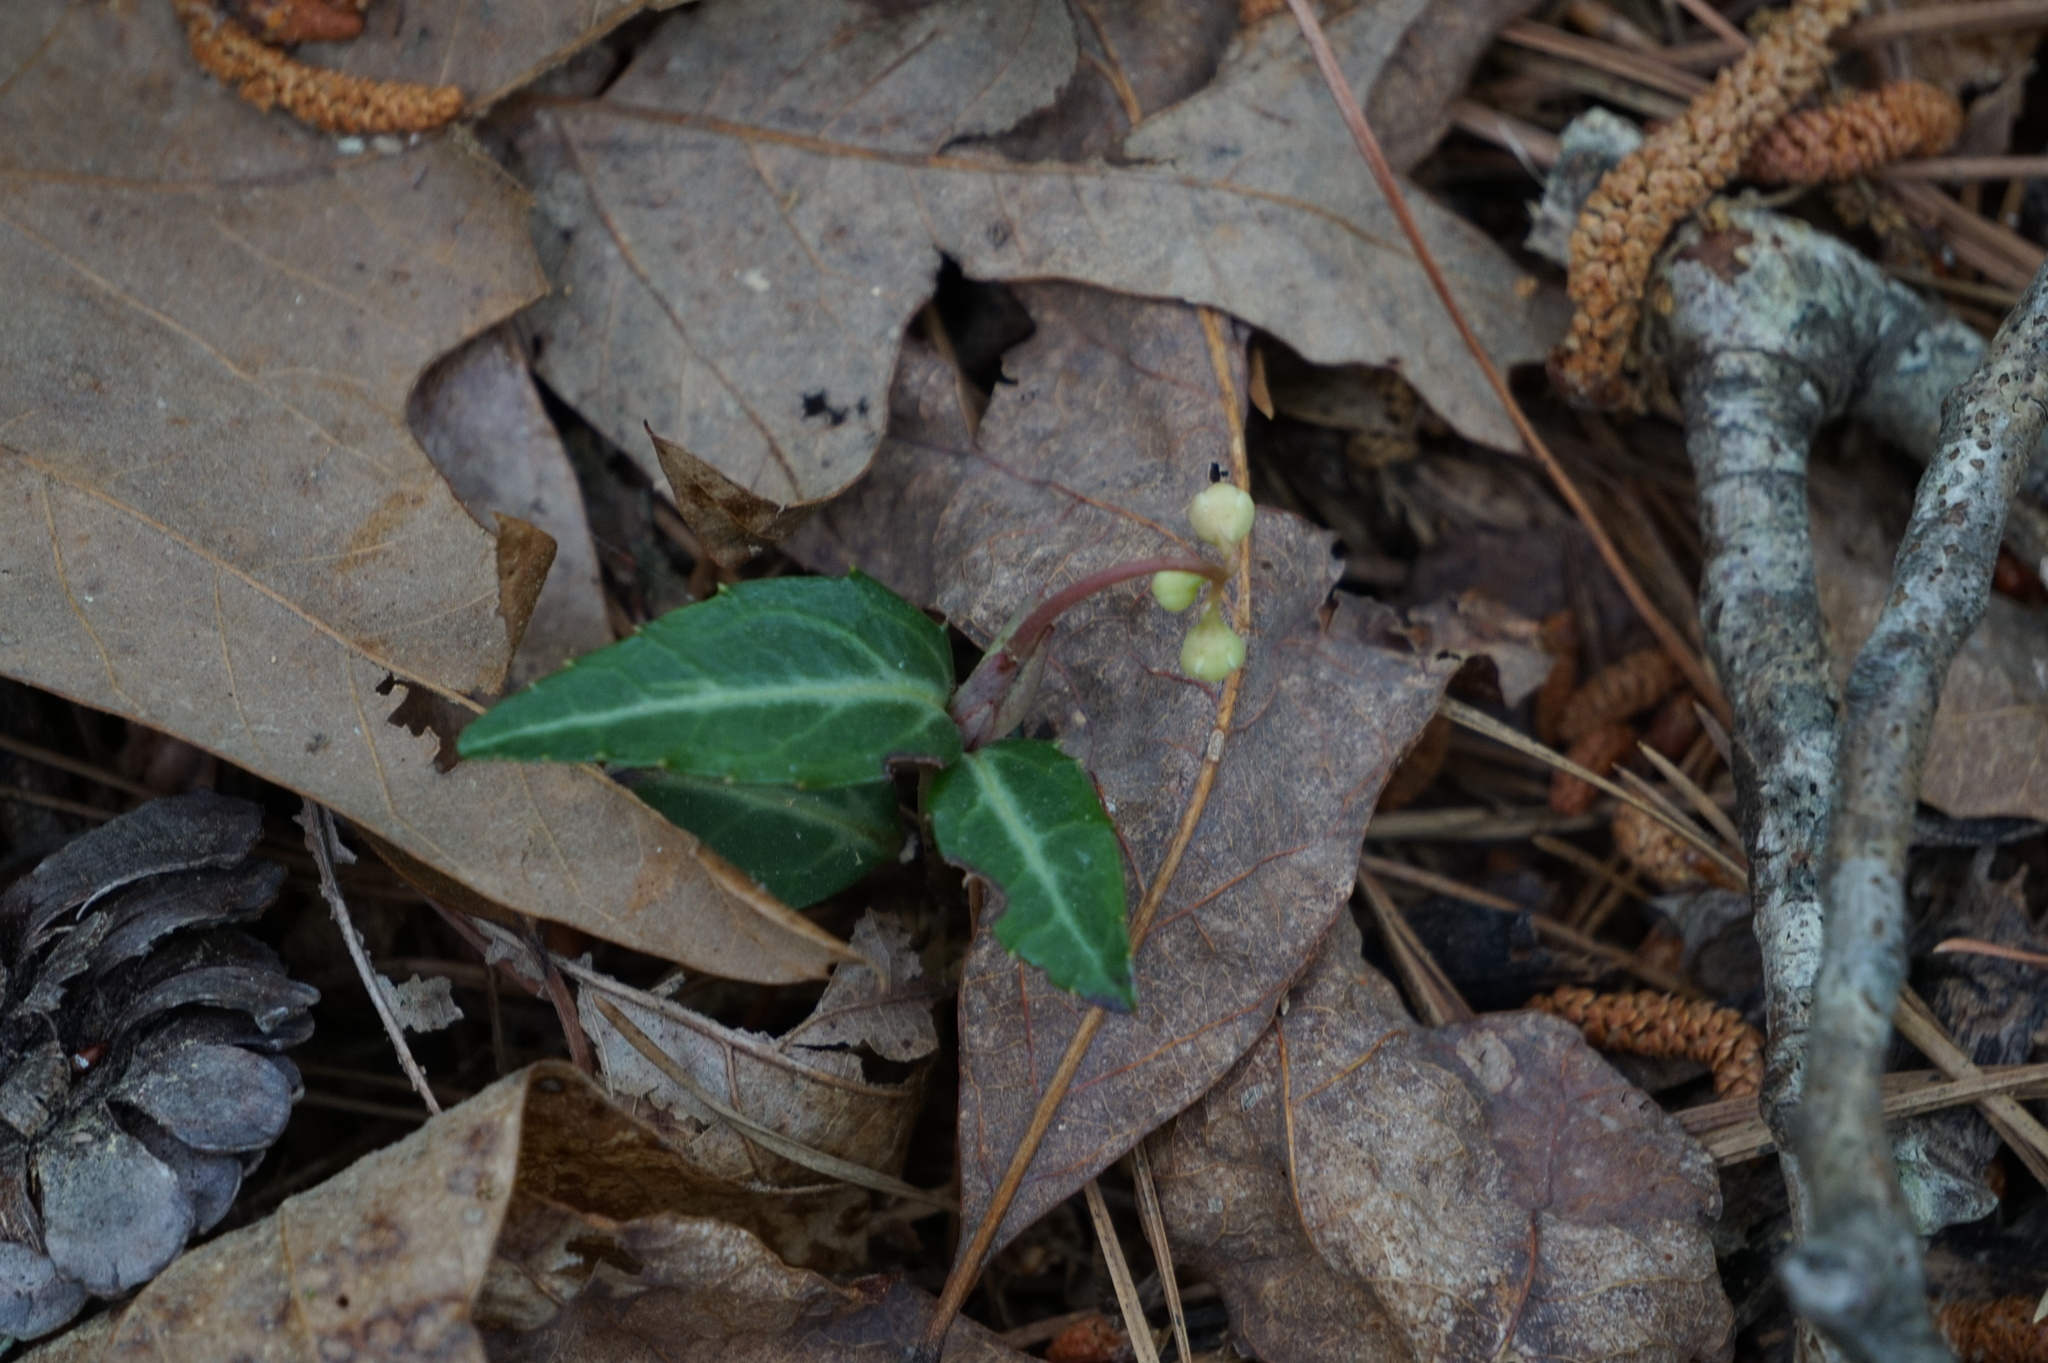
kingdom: Plantae
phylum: Tracheophyta
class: Magnoliopsida
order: Ericales
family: Ericaceae
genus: Chimaphila
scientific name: Chimaphila maculata
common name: Spotted pipsissewa
